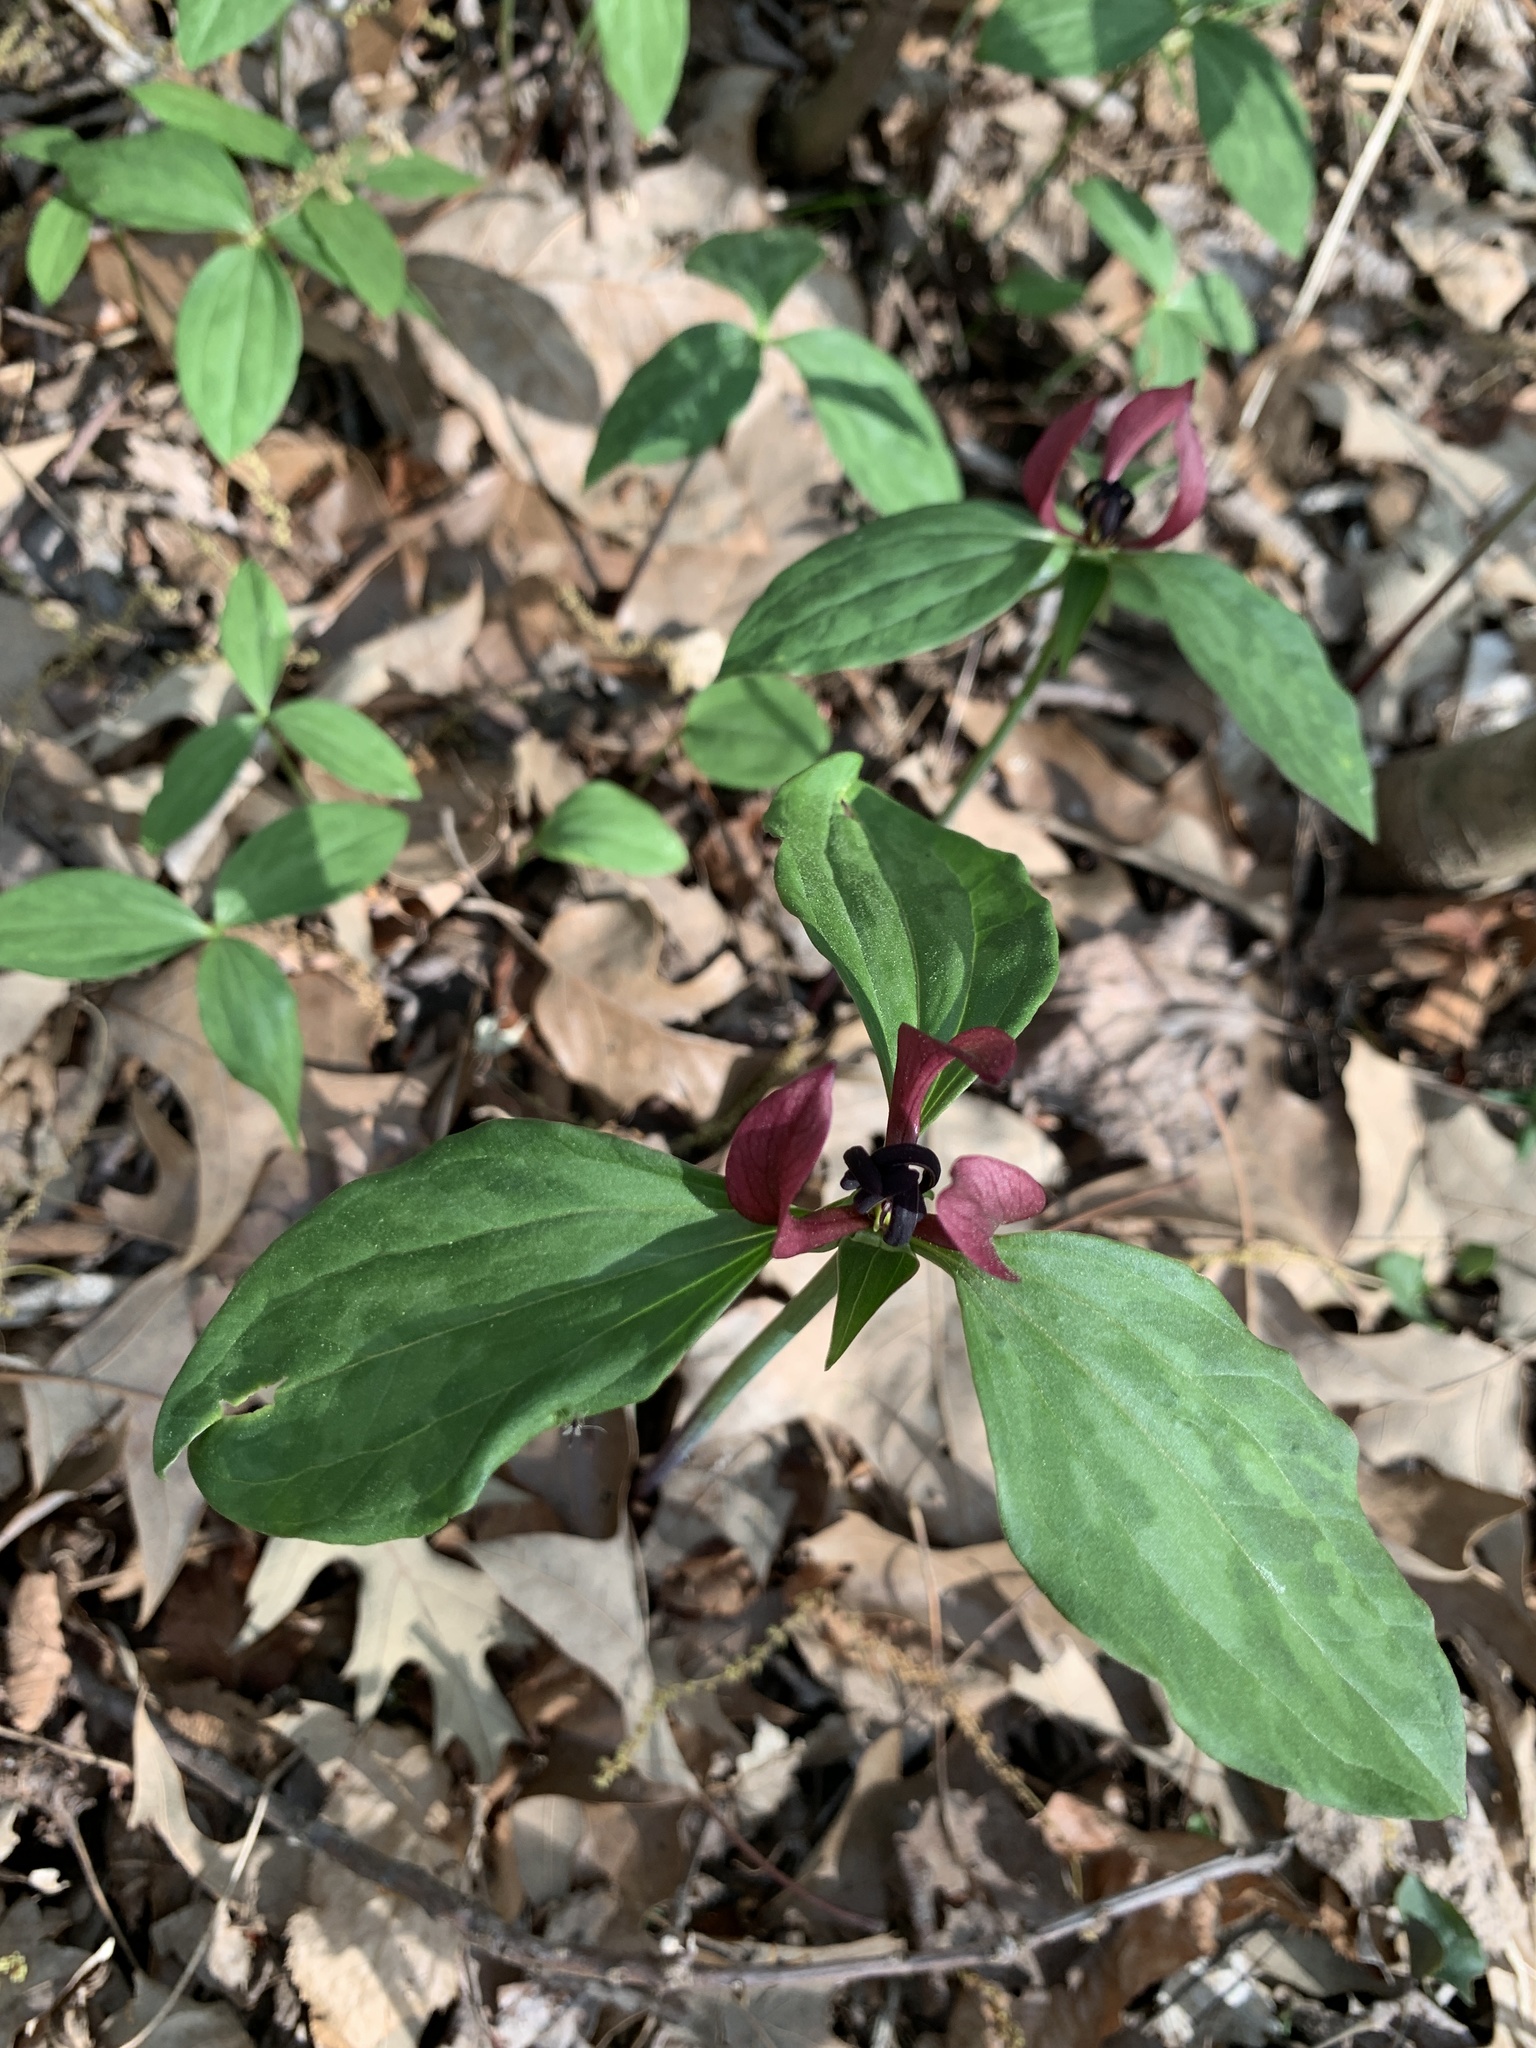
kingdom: Plantae
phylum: Tracheophyta
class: Liliopsida
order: Liliales
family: Melanthiaceae
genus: Trillium
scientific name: Trillium recurvatum
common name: Bloody butcher
